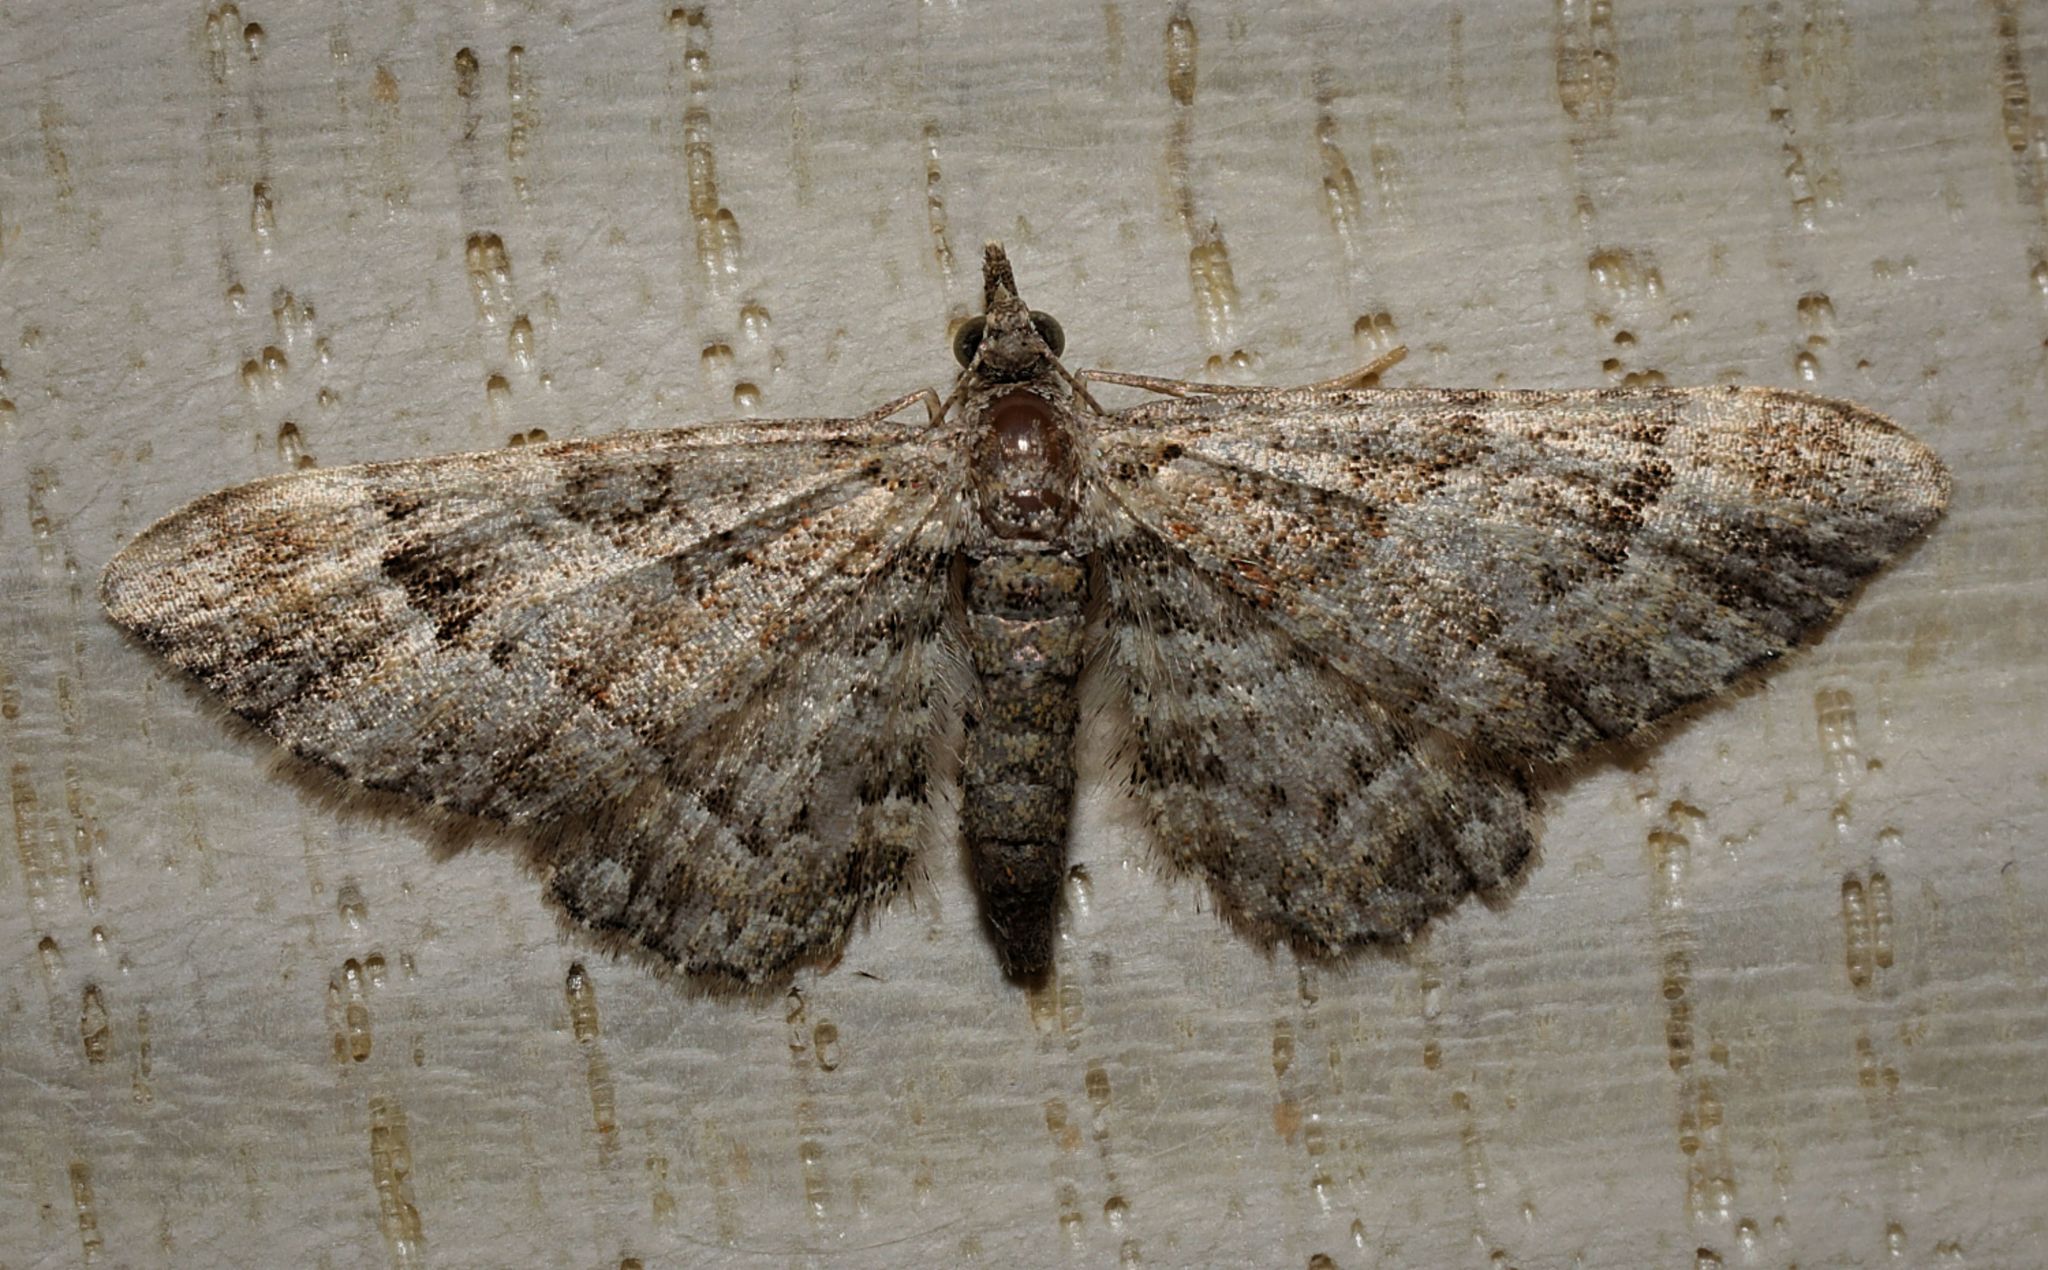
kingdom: Animalia
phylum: Arthropoda
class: Insecta
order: Lepidoptera
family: Geometridae
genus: Gymnoscelis
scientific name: Gymnoscelis rufifasciata
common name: Double-striped pug
